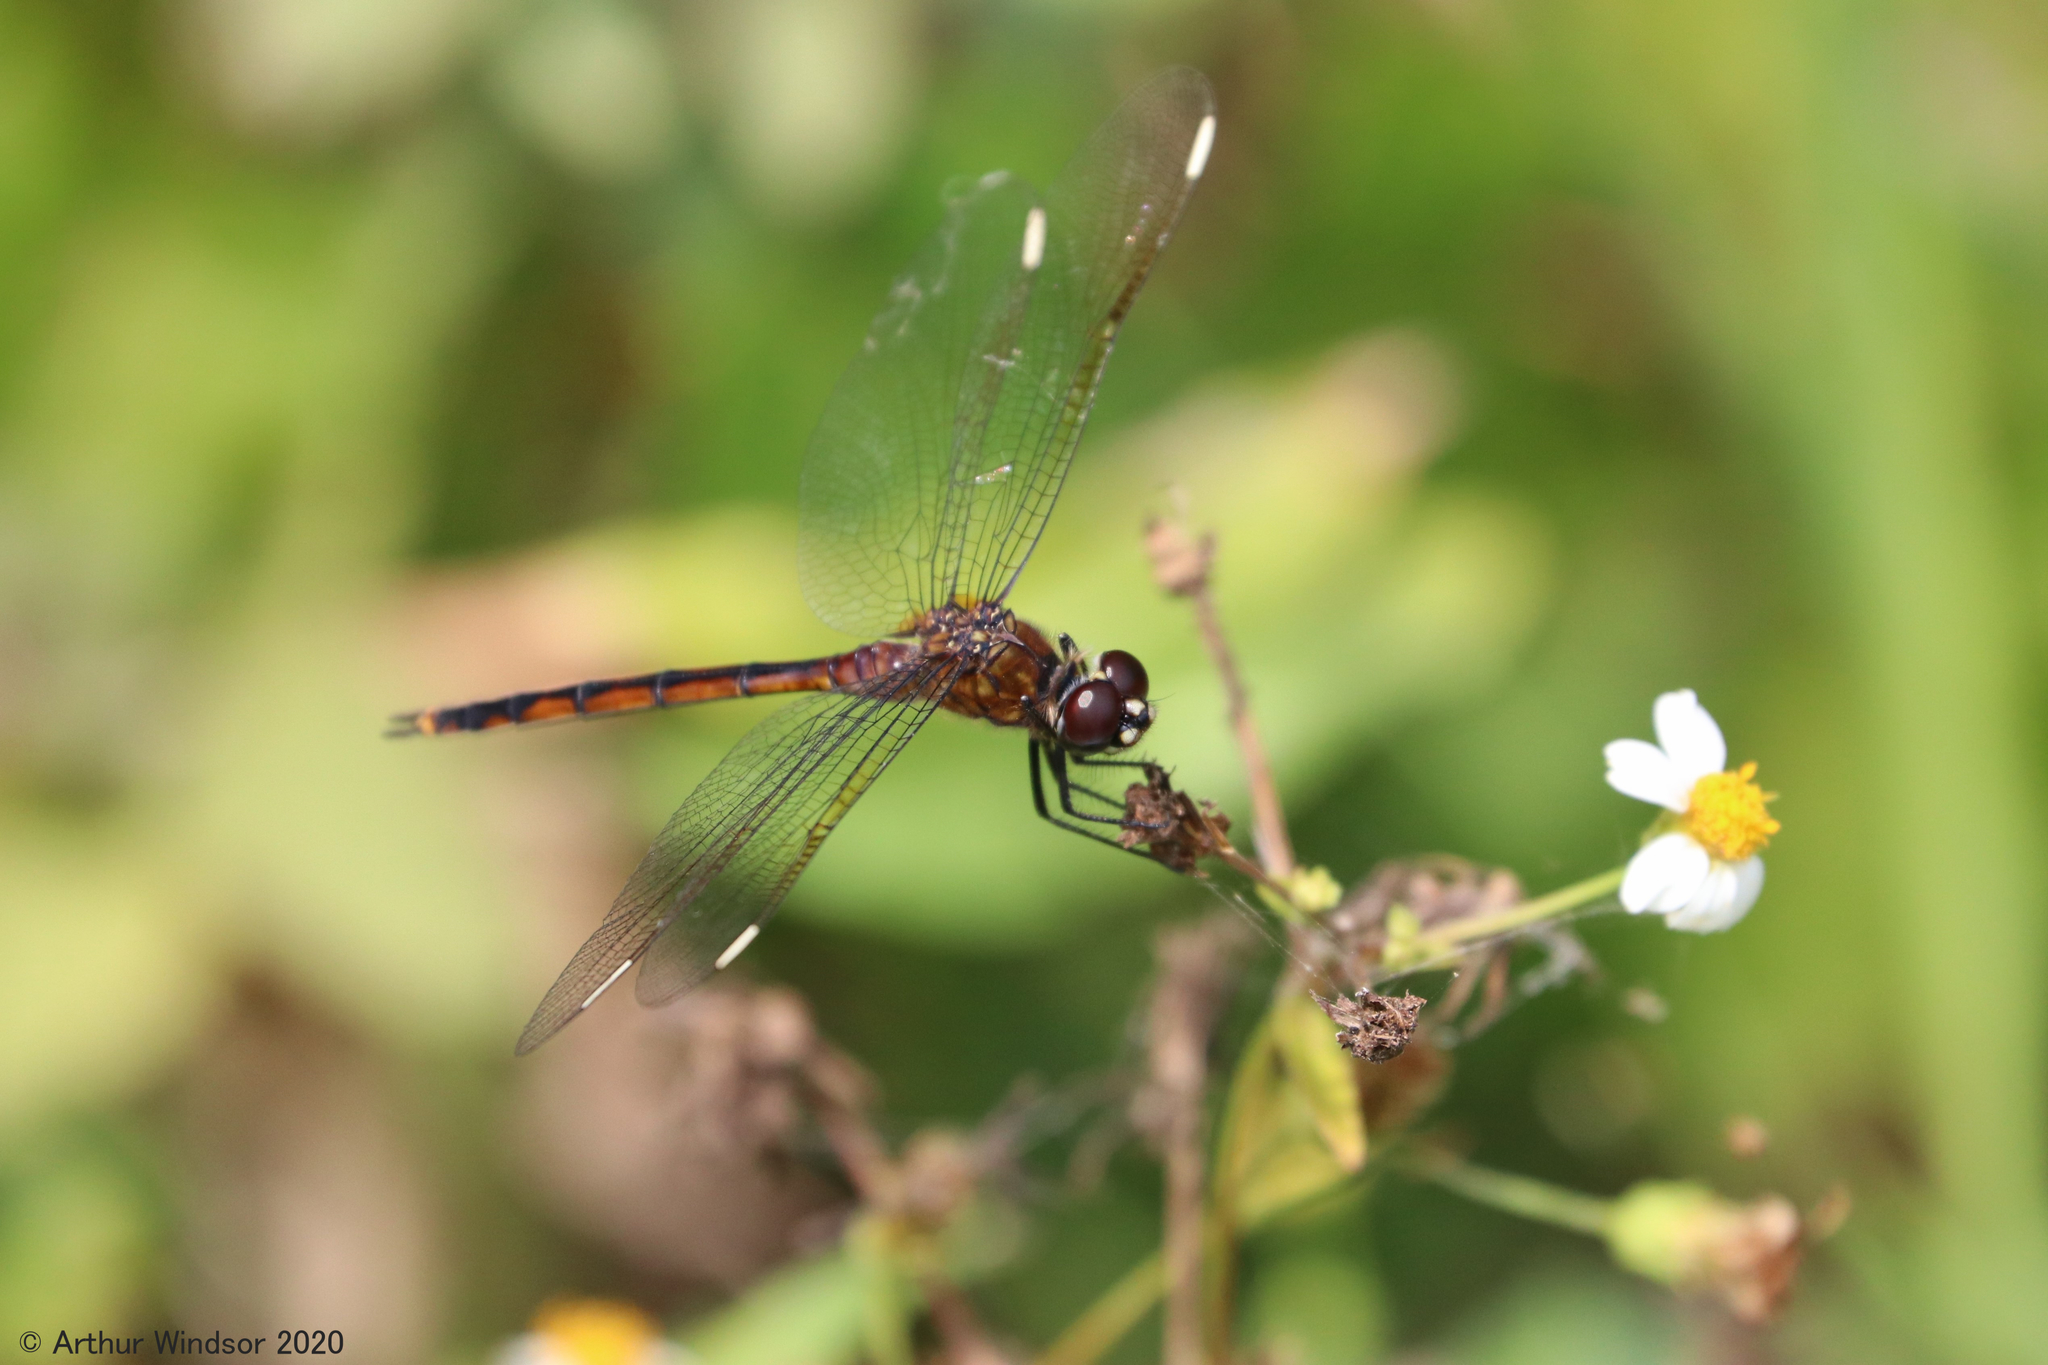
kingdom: Animalia
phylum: Arthropoda
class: Insecta
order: Odonata
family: Libellulidae
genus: Brachymesia
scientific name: Brachymesia gravida
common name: Four-spotted pennant
